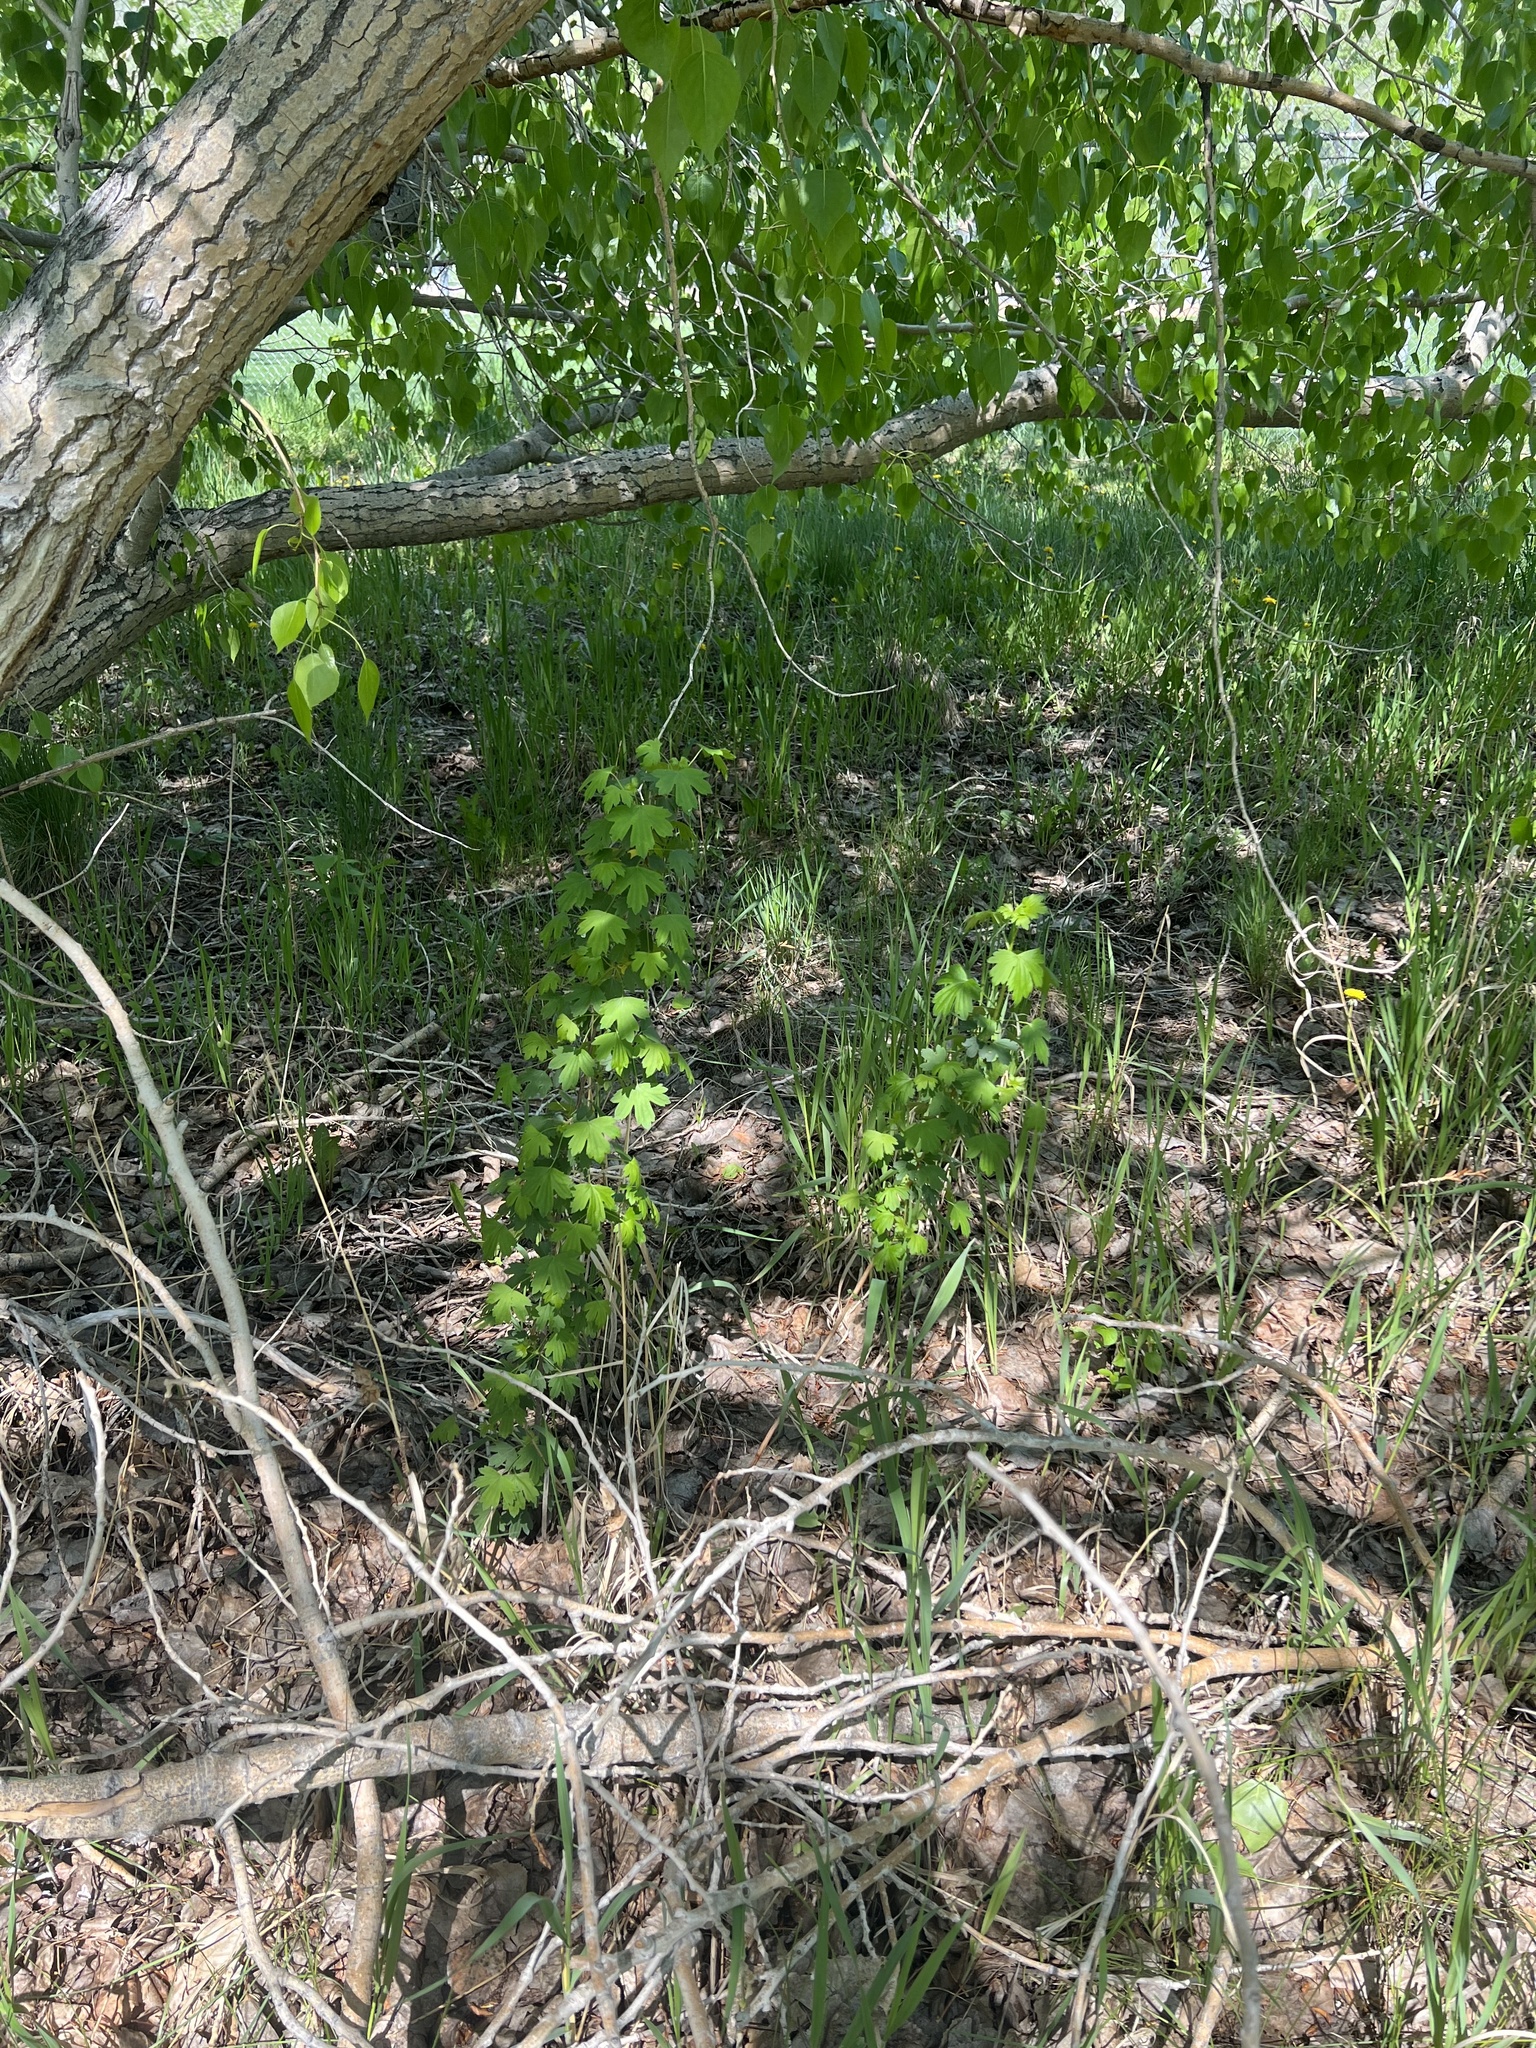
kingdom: Plantae
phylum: Tracheophyta
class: Magnoliopsida
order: Saxifragales
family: Grossulariaceae
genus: Ribes
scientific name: Ribes aureum
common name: Golden currant
